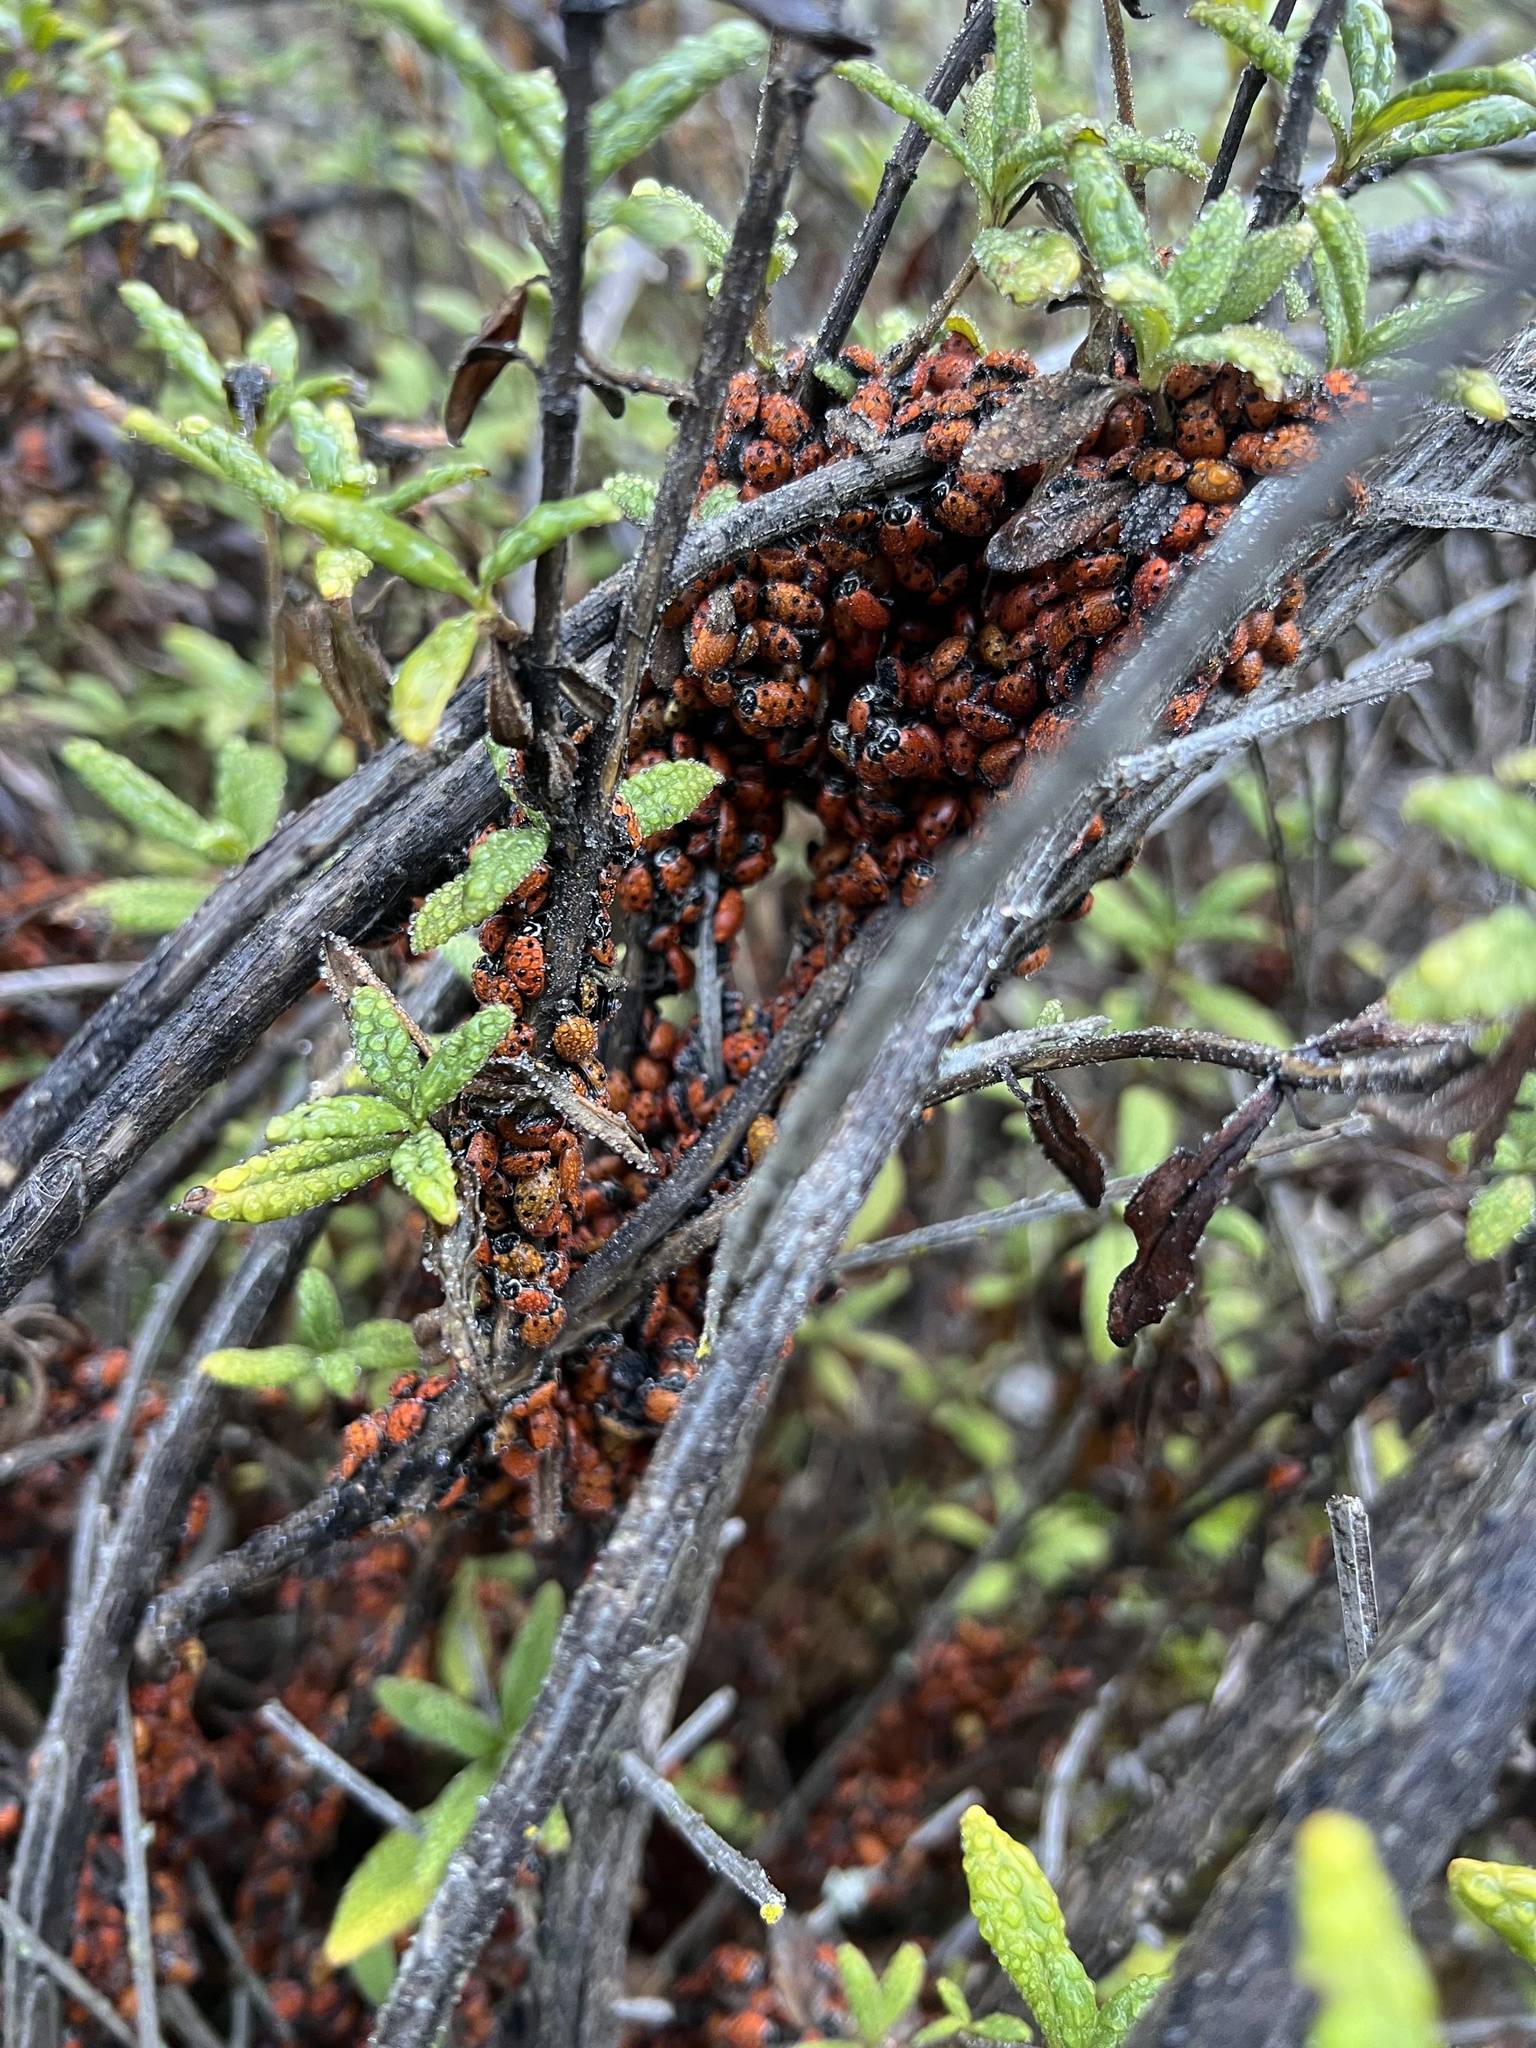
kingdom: Animalia
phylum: Arthropoda
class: Insecta
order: Coleoptera
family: Coccinellidae
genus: Hippodamia
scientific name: Hippodamia convergens
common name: Convergent lady beetle
